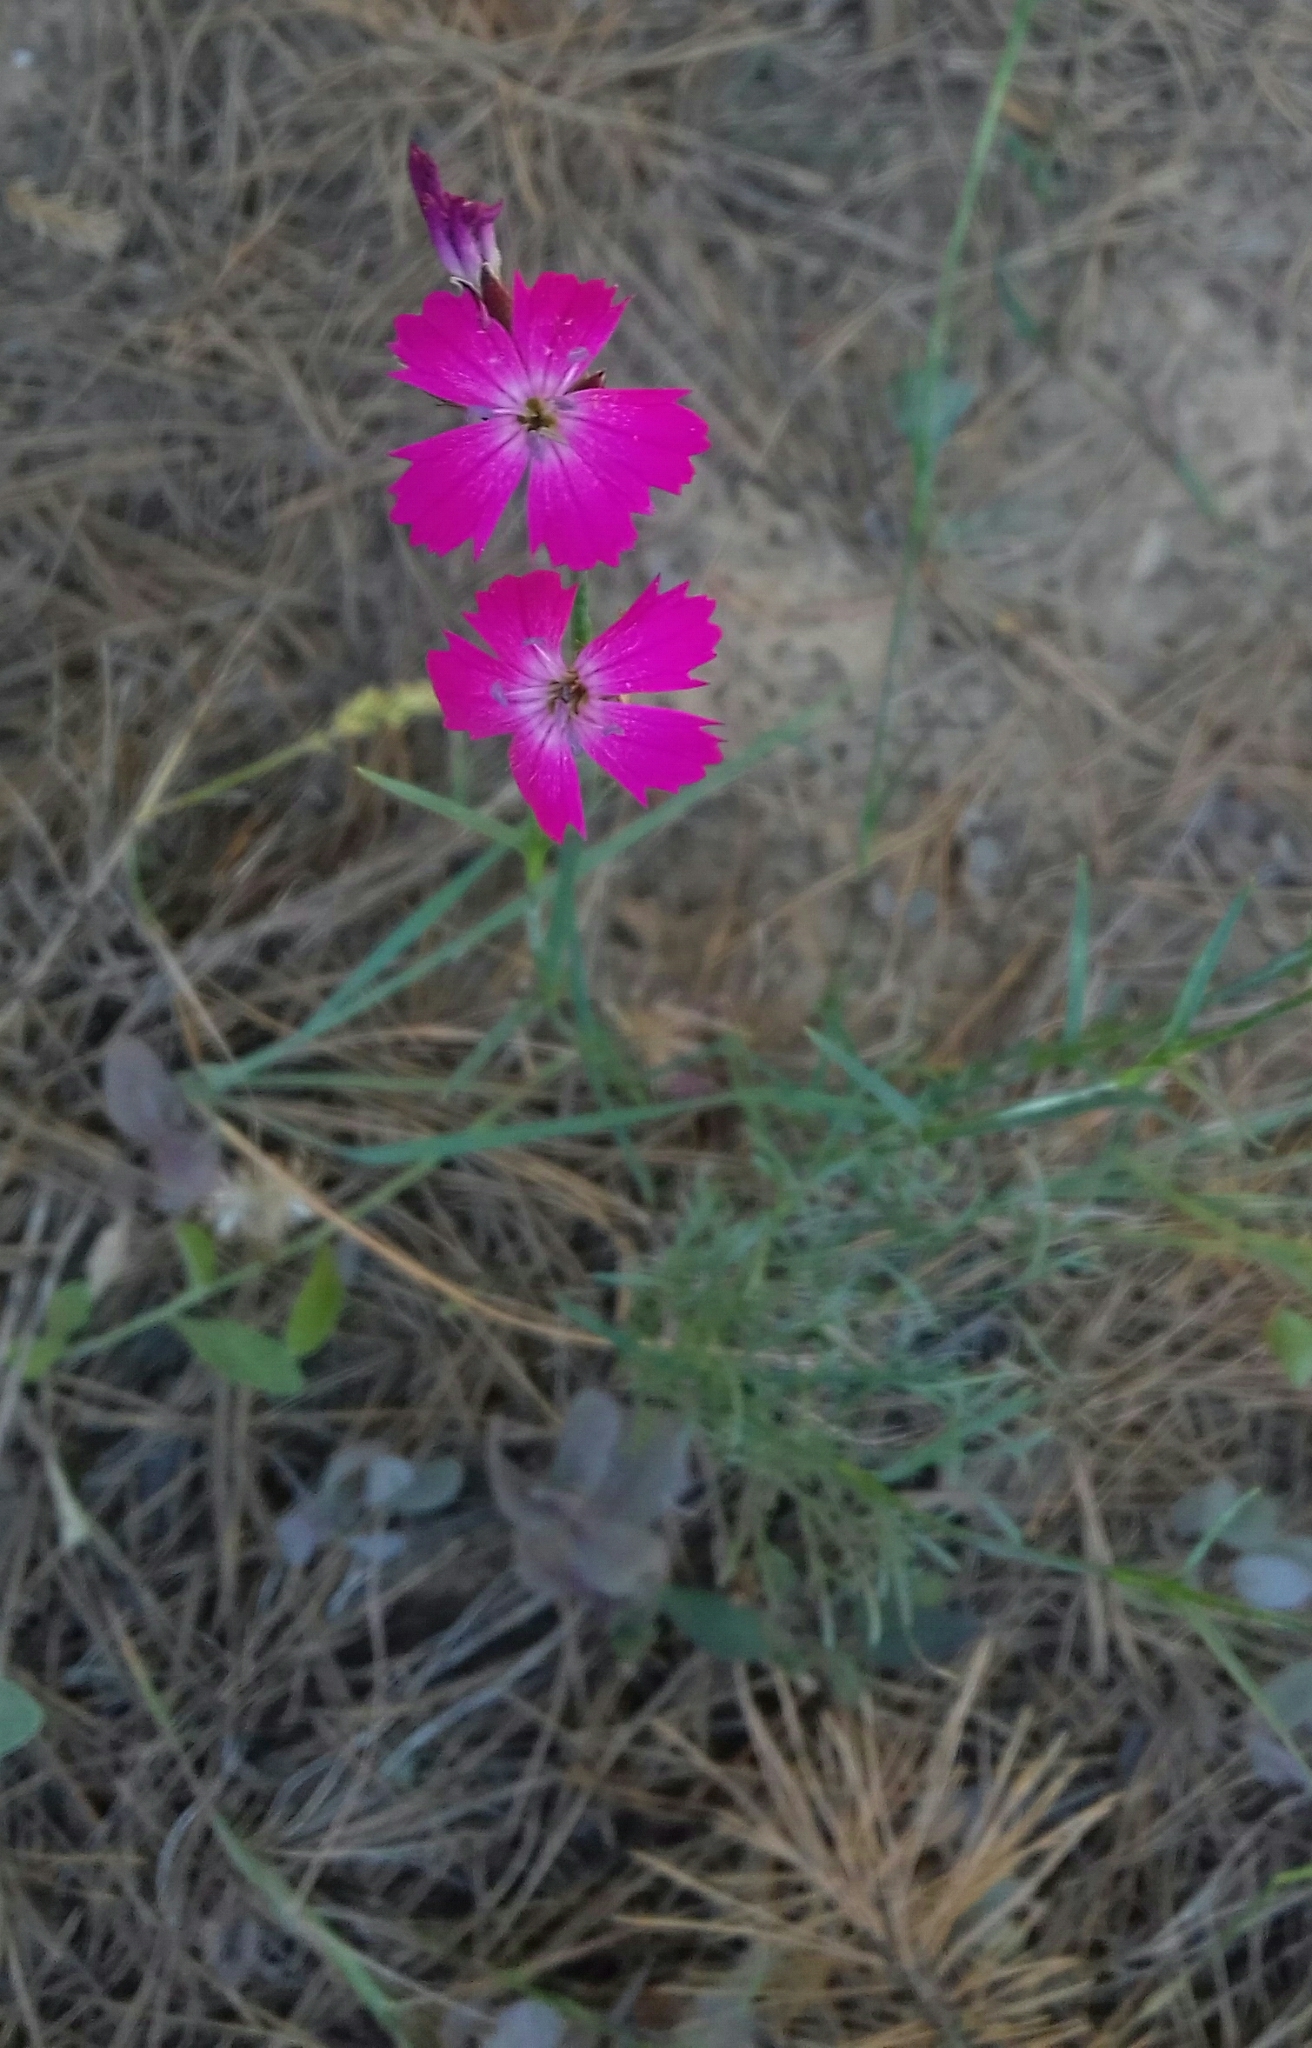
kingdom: Plantae
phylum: Tracheophyta
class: Magnoliopsida
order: Caryophyllales
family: Caryophyllaceae
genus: Dianthus
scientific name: Dianthus chinensis
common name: Rainbow pink
